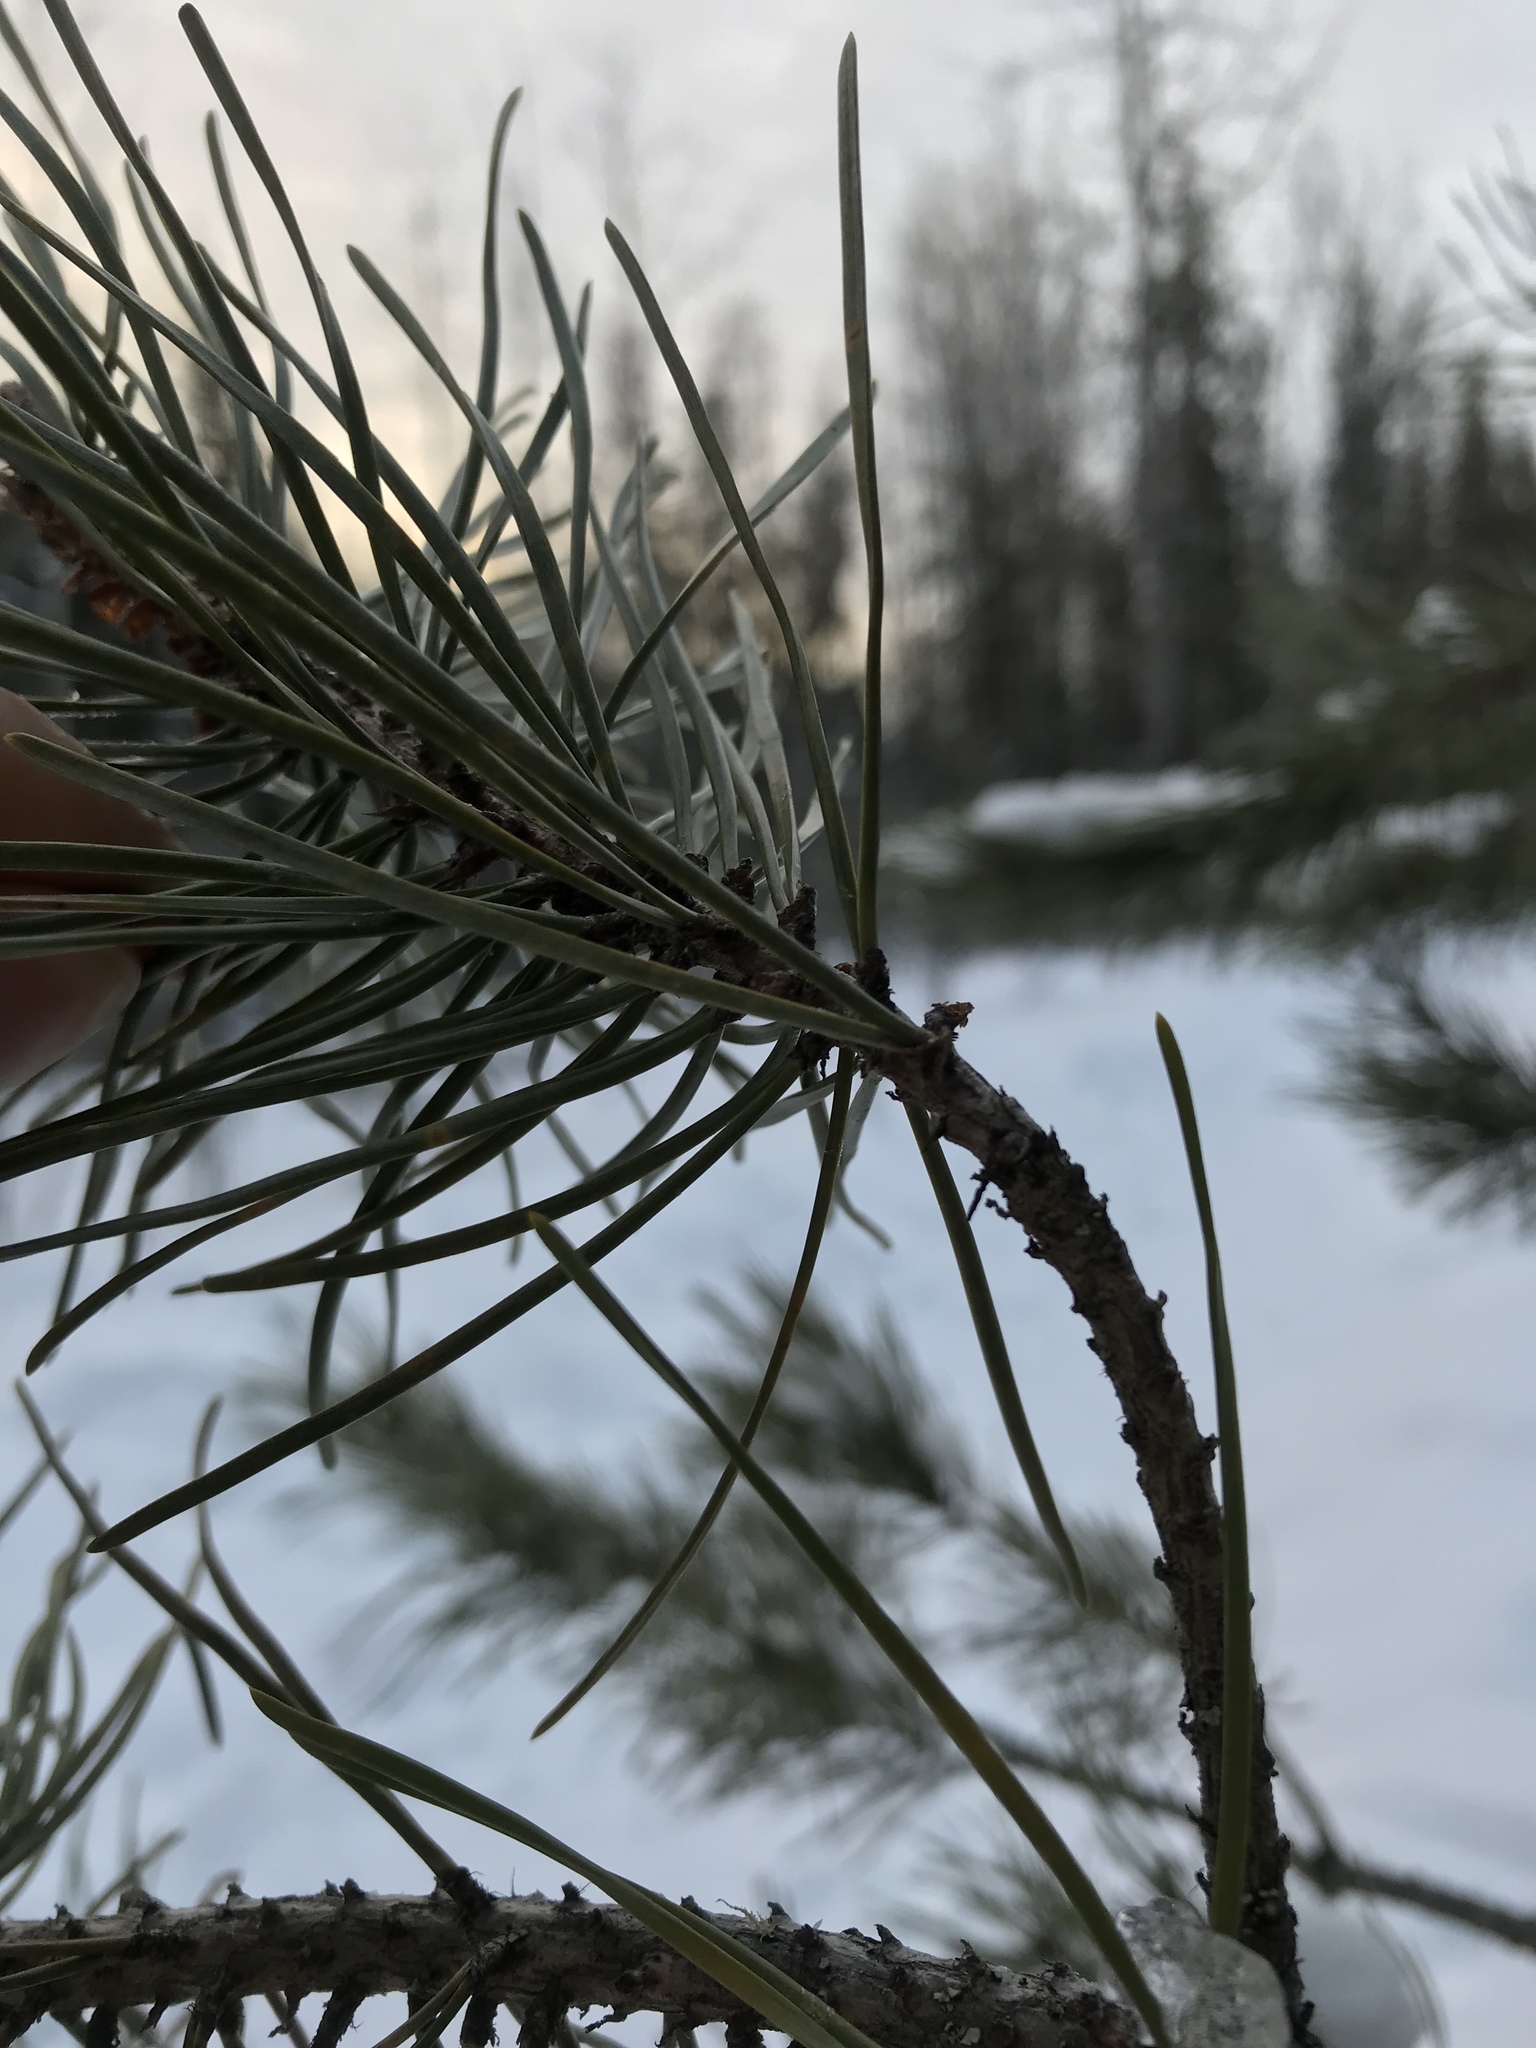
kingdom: Plantae
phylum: Tracheophyta
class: Pinopsida
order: Pinales
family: Pinaceae
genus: Pinus
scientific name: Pinus contorta
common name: Lodgepole pine
